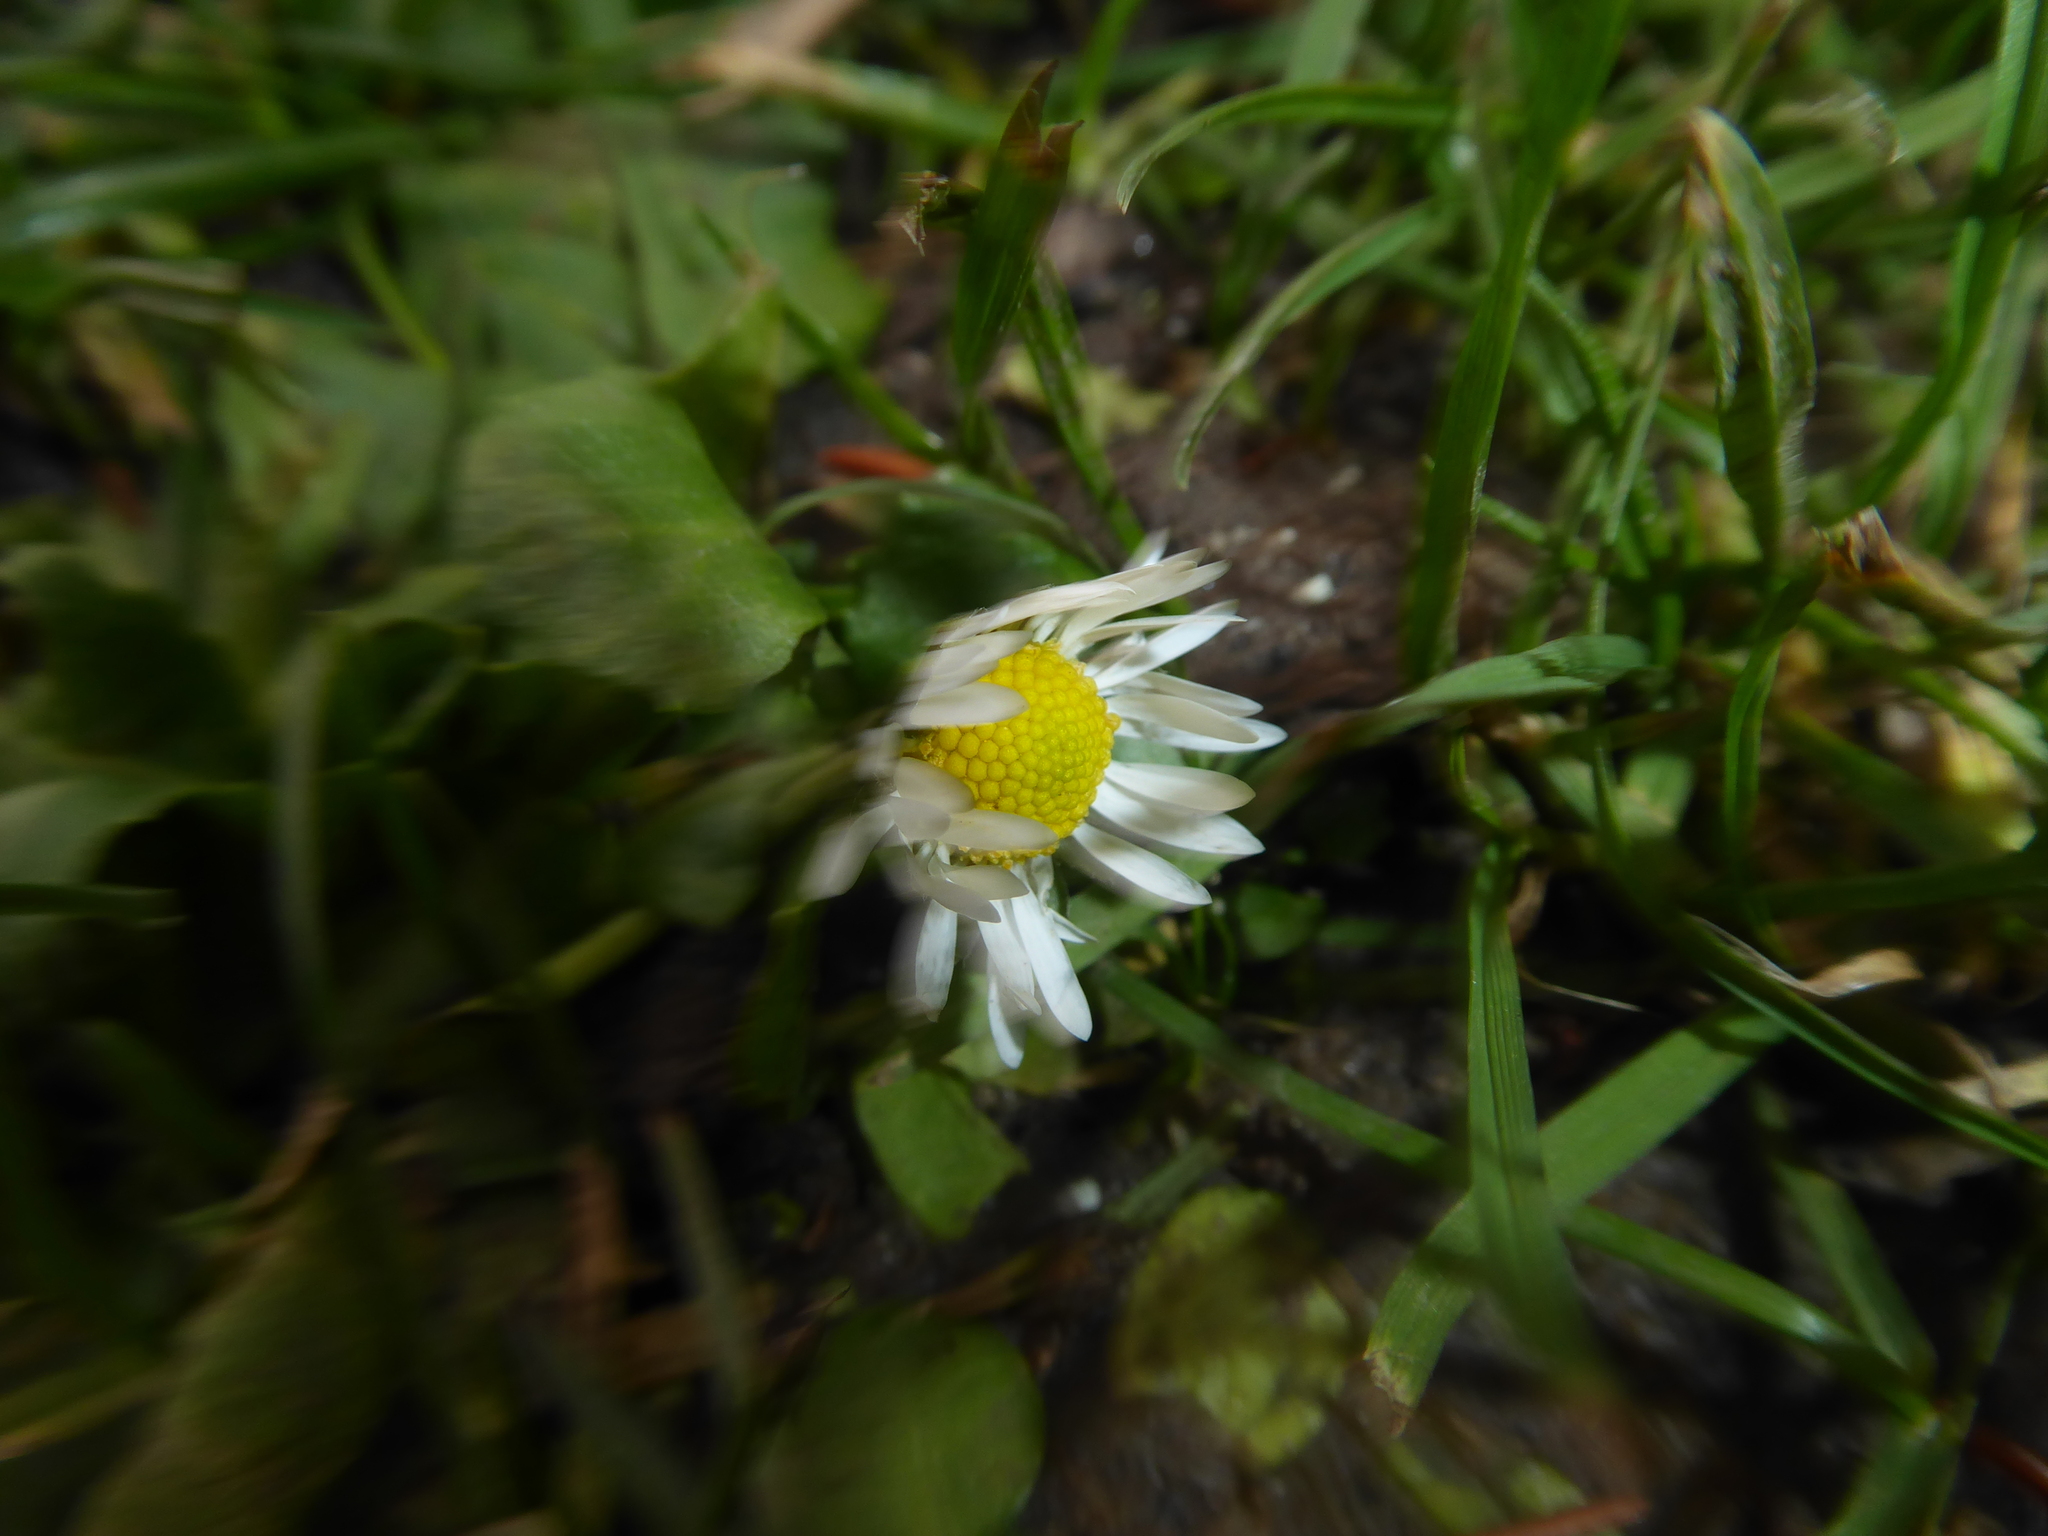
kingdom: Plantae
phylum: Tracheophyta
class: Magnoliopsida
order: Asterales
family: Asteraceae
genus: Bellis
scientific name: Bellis perennis
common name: Lawndaisy
